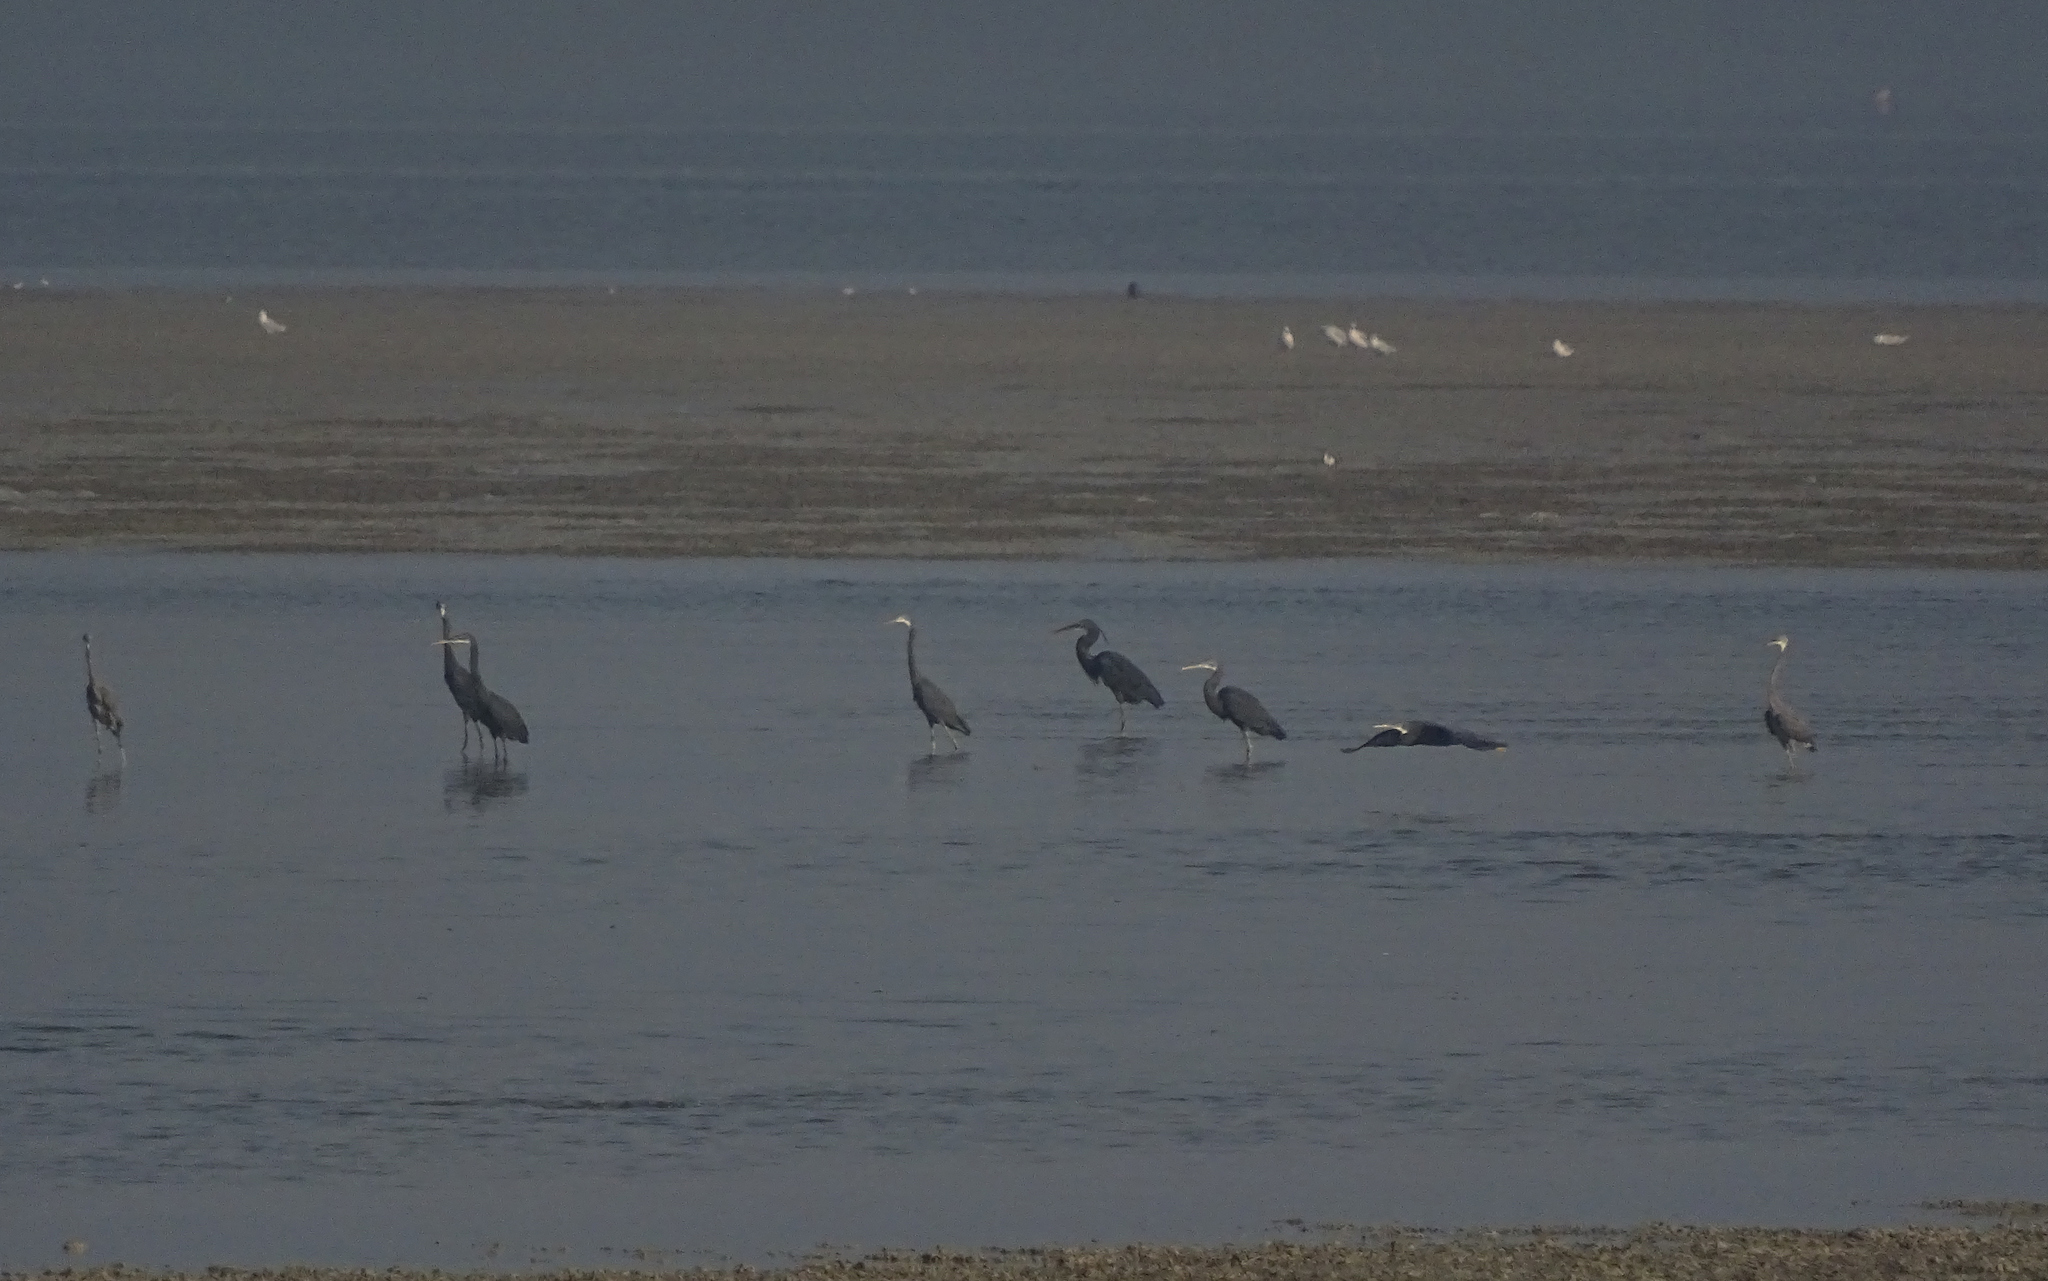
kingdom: Animalia
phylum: Chordata
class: Aves
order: Pelecaniformes
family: Ardeidae
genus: Egretta
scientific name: Egretta gularis
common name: Western reef-heron
